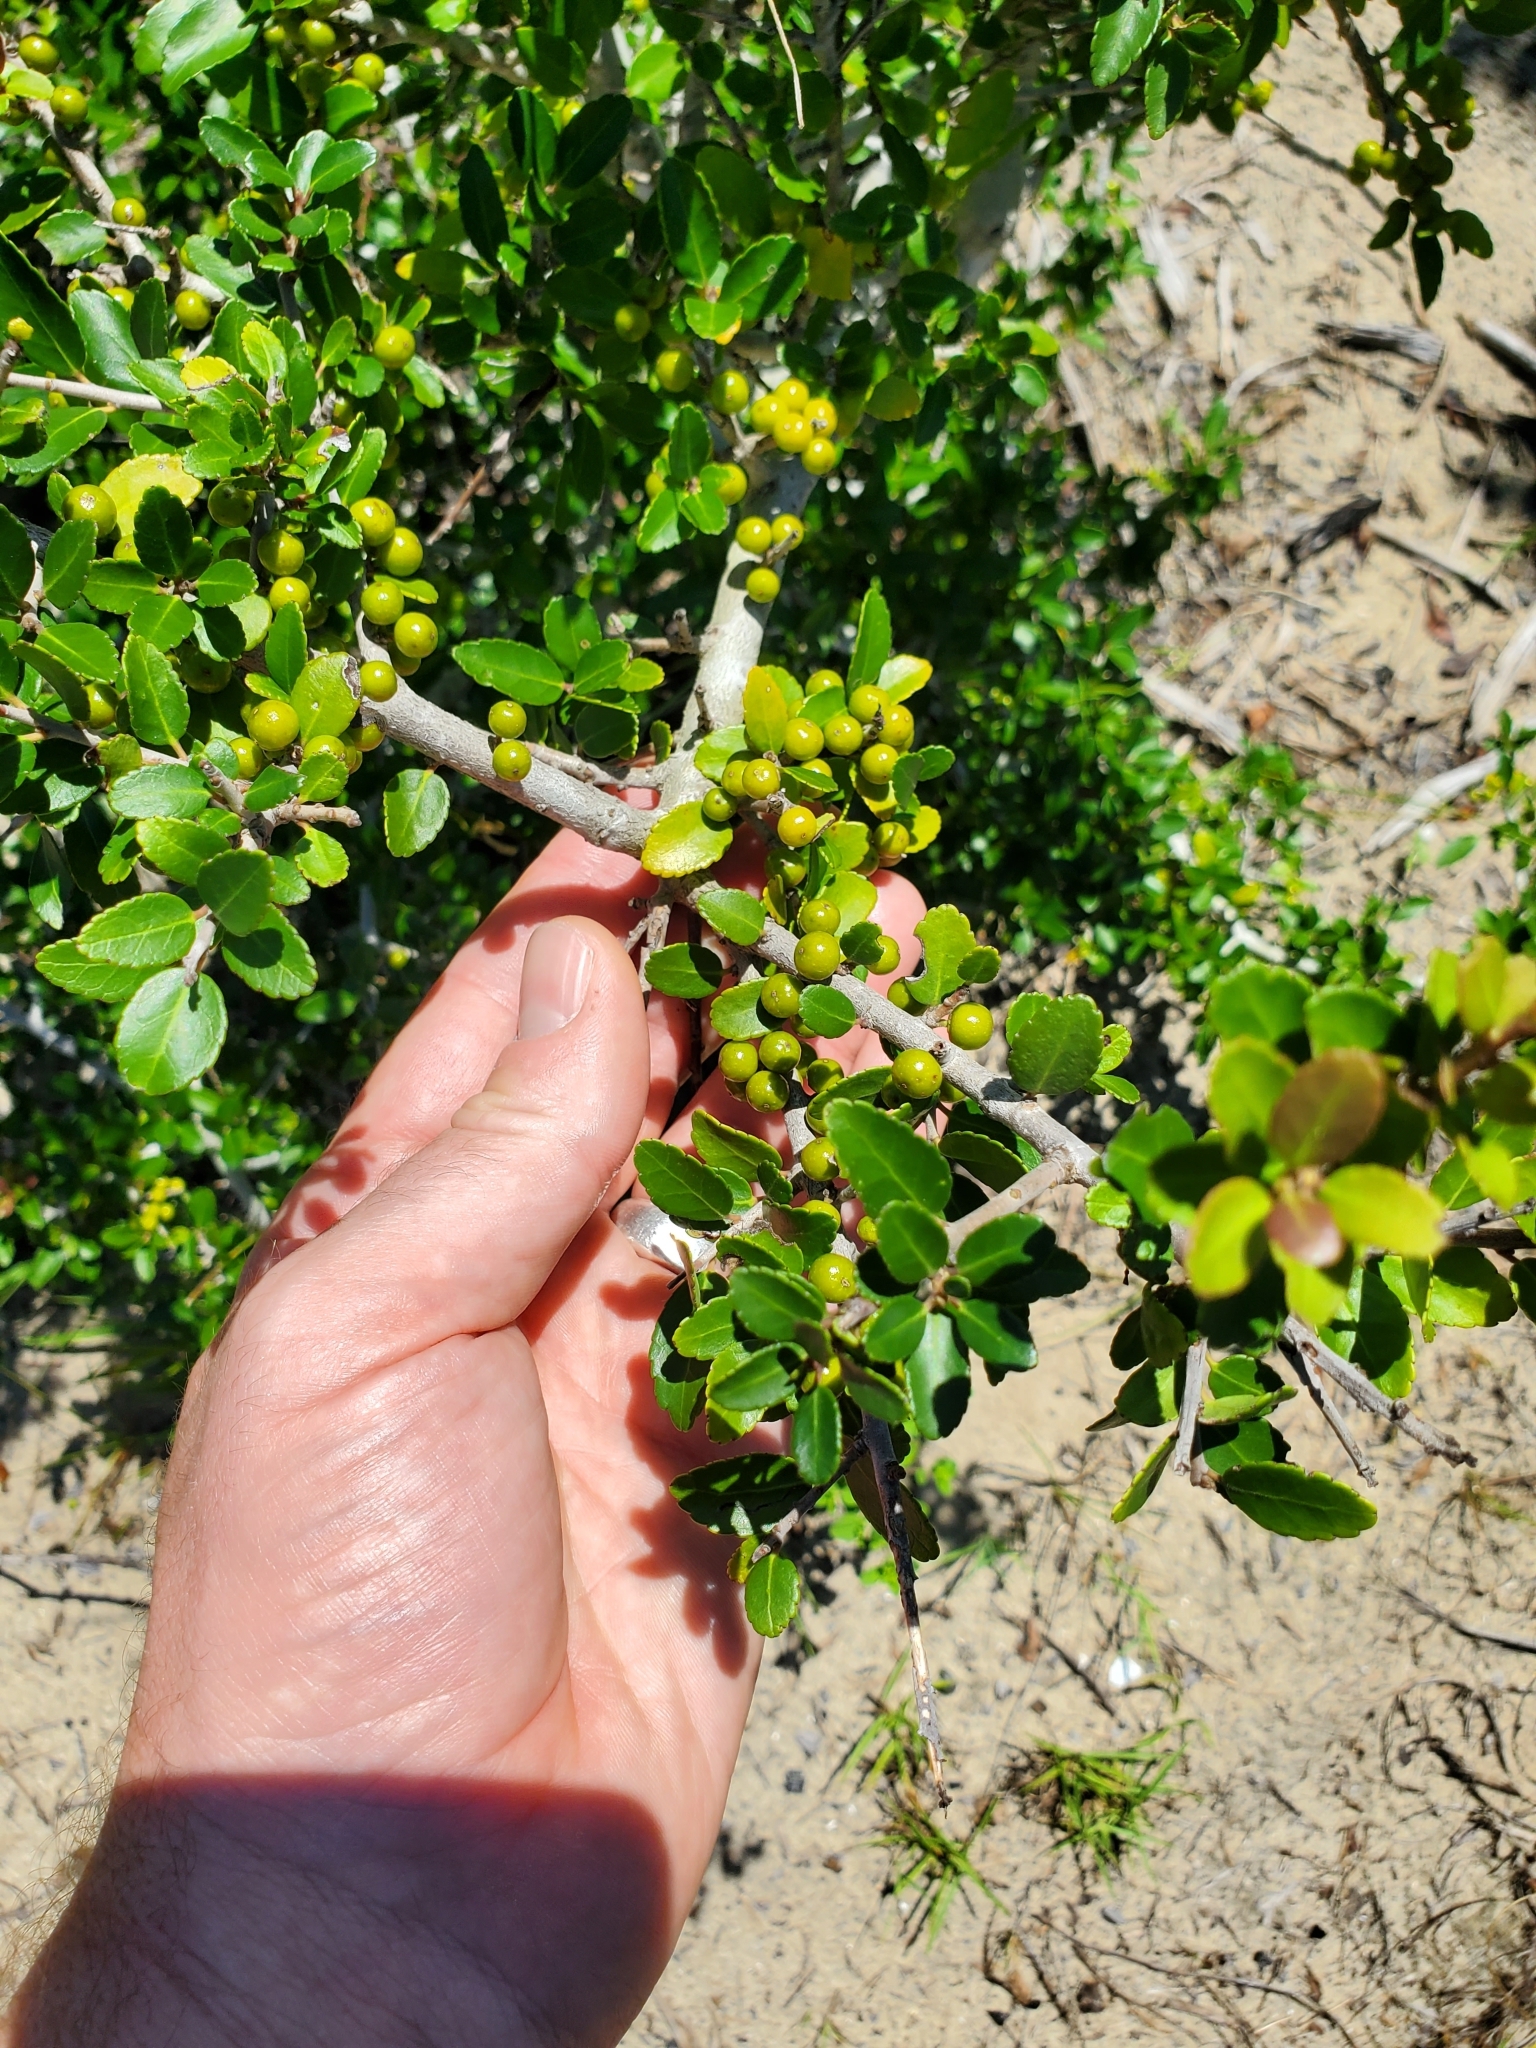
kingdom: Plantae
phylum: Tracheophyta
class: Magnoliopsida
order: Aquifoliales
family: Aquifoliaceae
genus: Ilex
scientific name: Ilex vomitoria
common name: Yaupon holly
